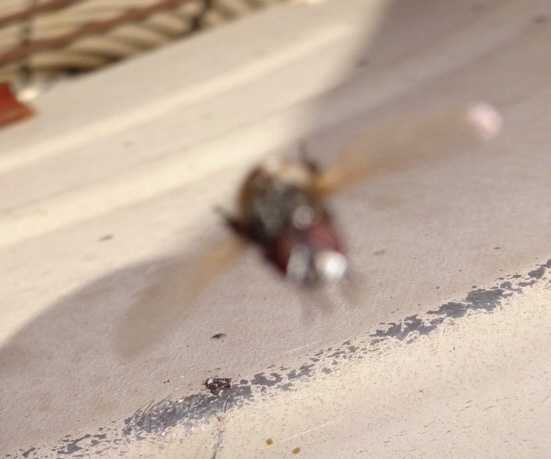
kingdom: Animalia
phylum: Arthropoda
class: Insecta
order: Diptera
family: Muscidae
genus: Musca
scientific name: Musca domestica
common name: House fly
